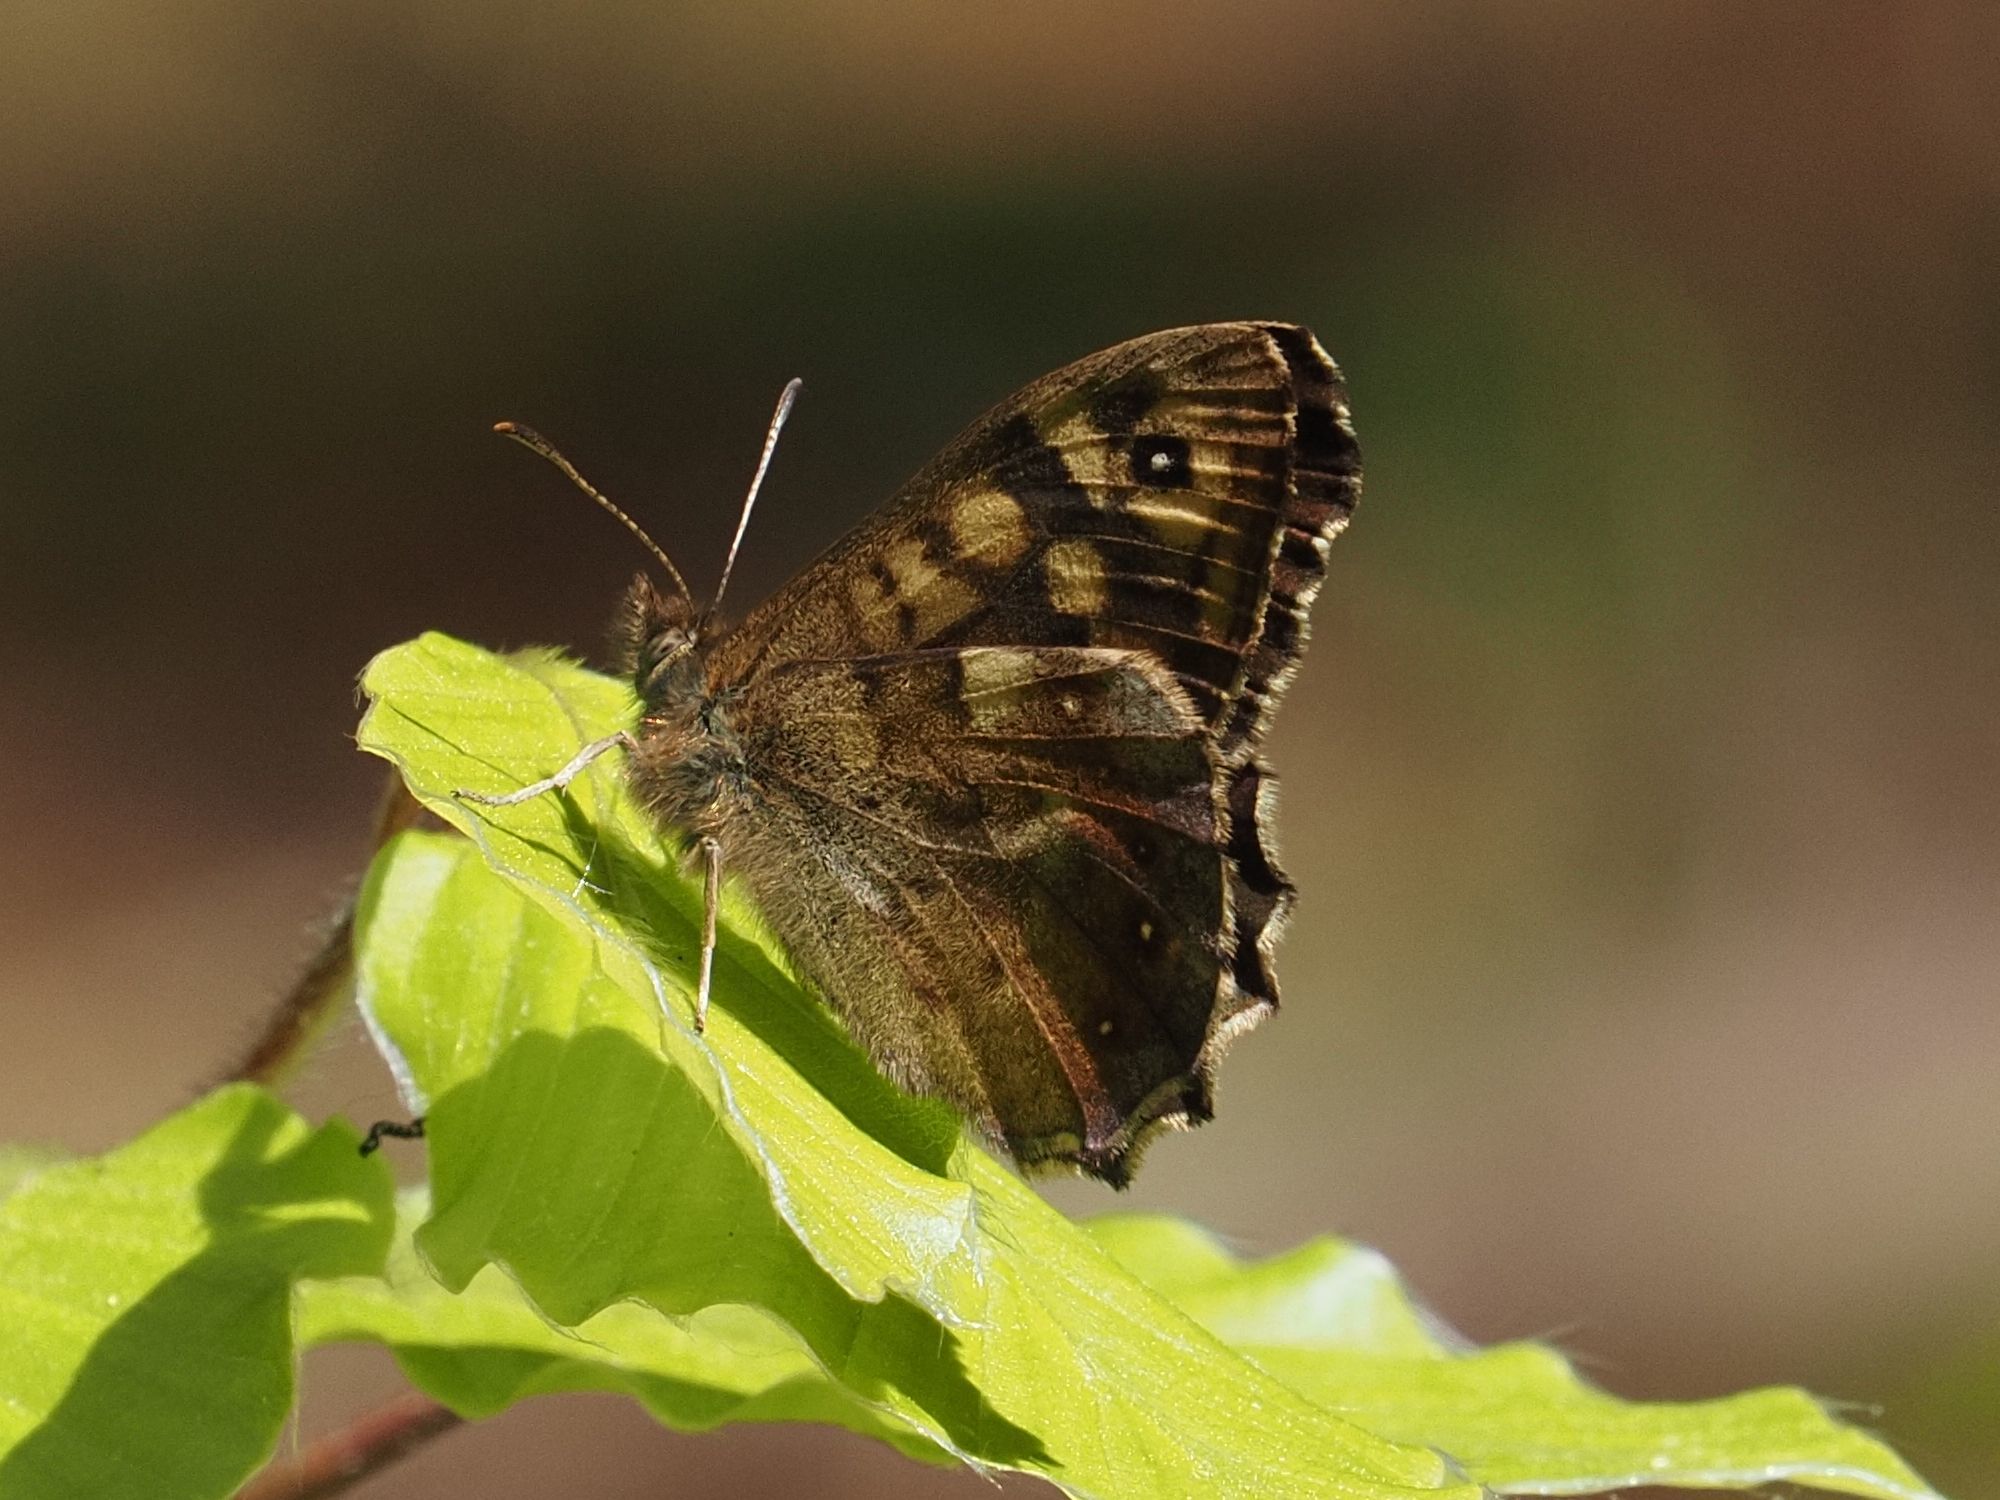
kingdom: Animalia
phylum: Arthropoda
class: Insecta
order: Lepidoptera
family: Nymphalidae
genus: Pararge
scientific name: Pararge aegeria
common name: Speckled wood
